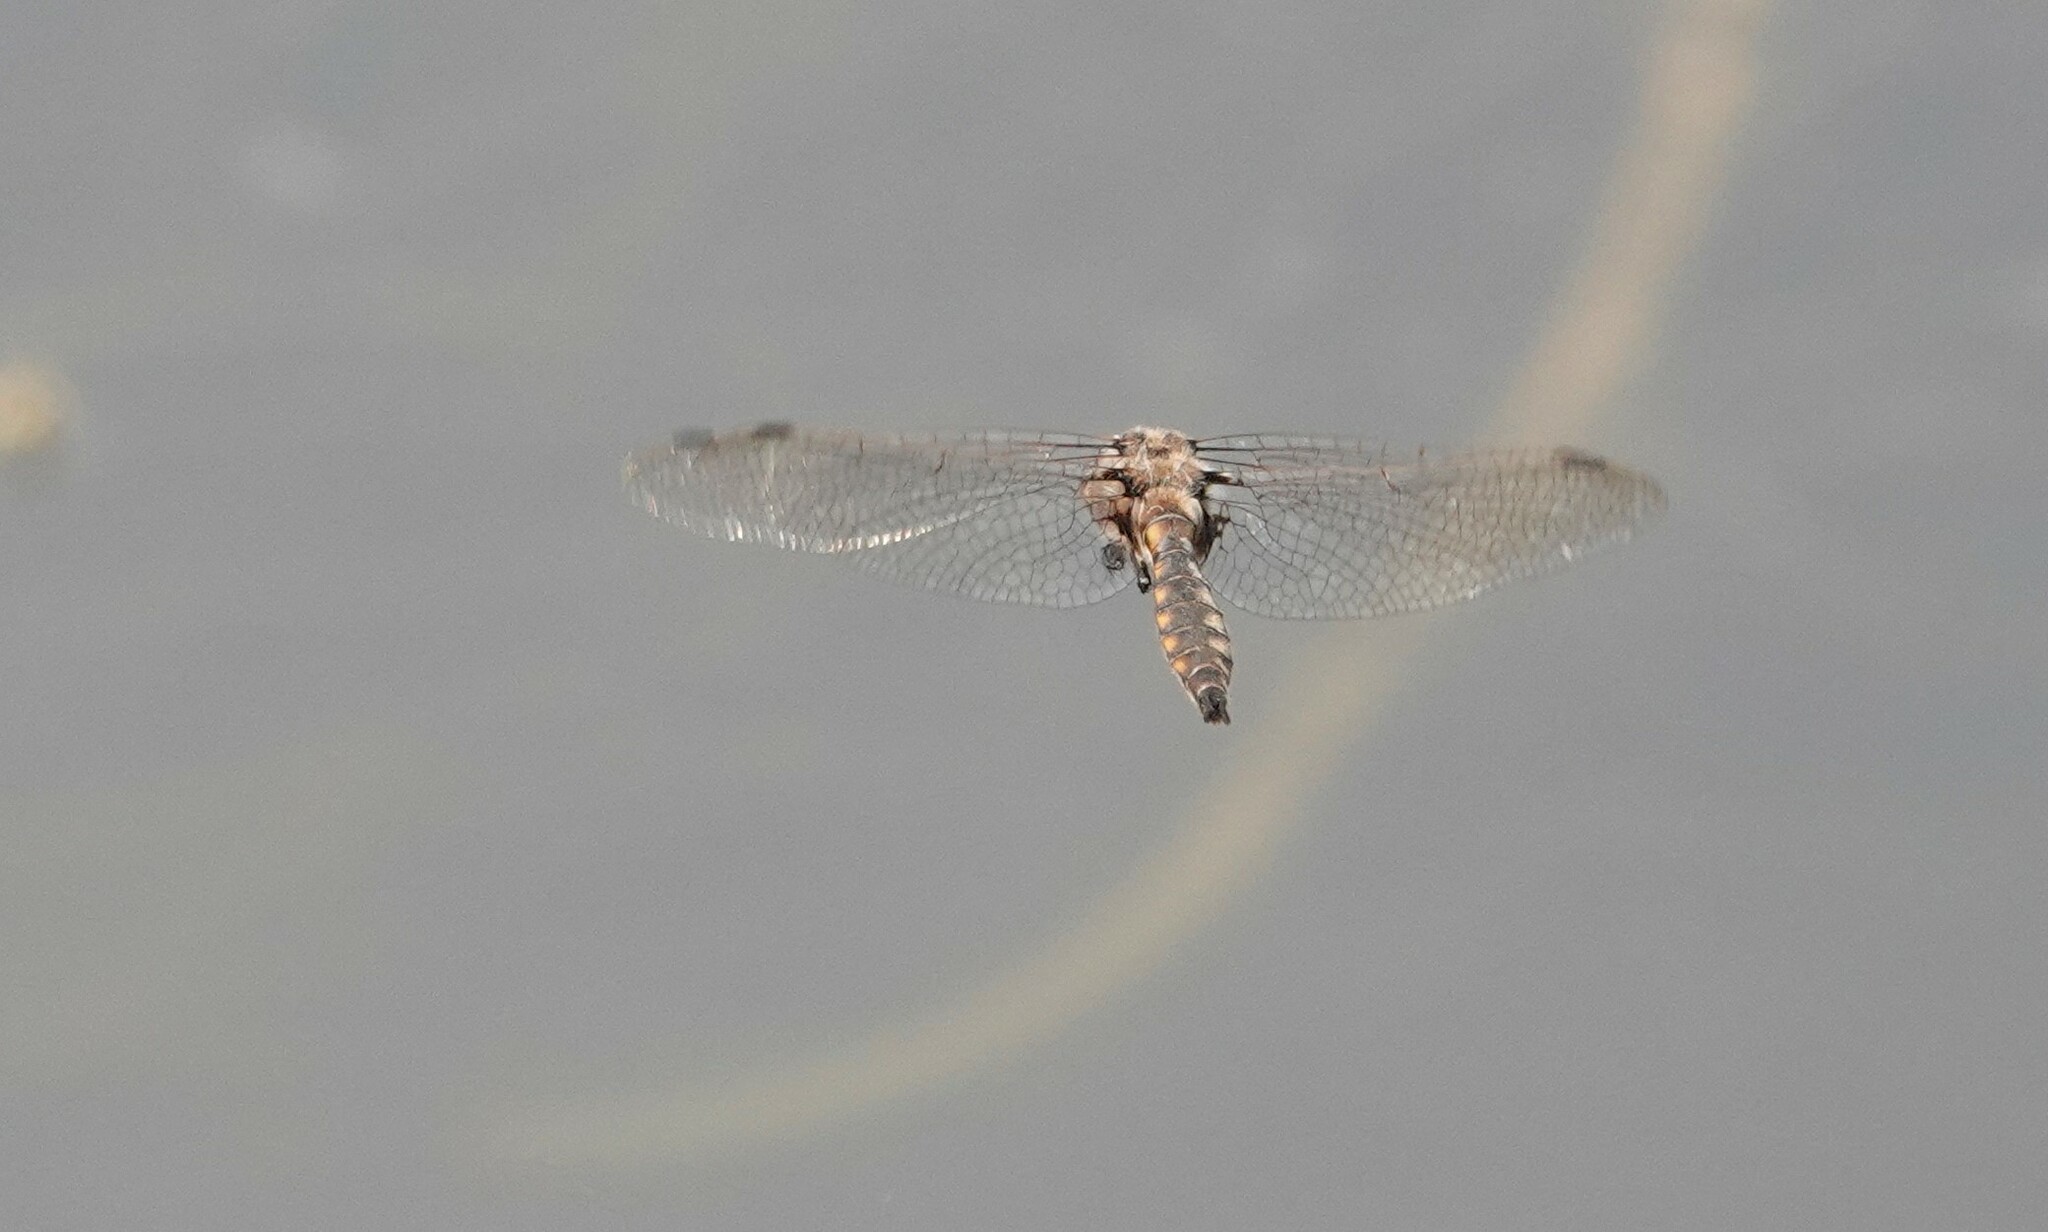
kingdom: Animalia
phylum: Arthropoda
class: Insecta
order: Odonata
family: Corduliidae
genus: Epitheca
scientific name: Epitheca canis
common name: Beaverpond baskettail
